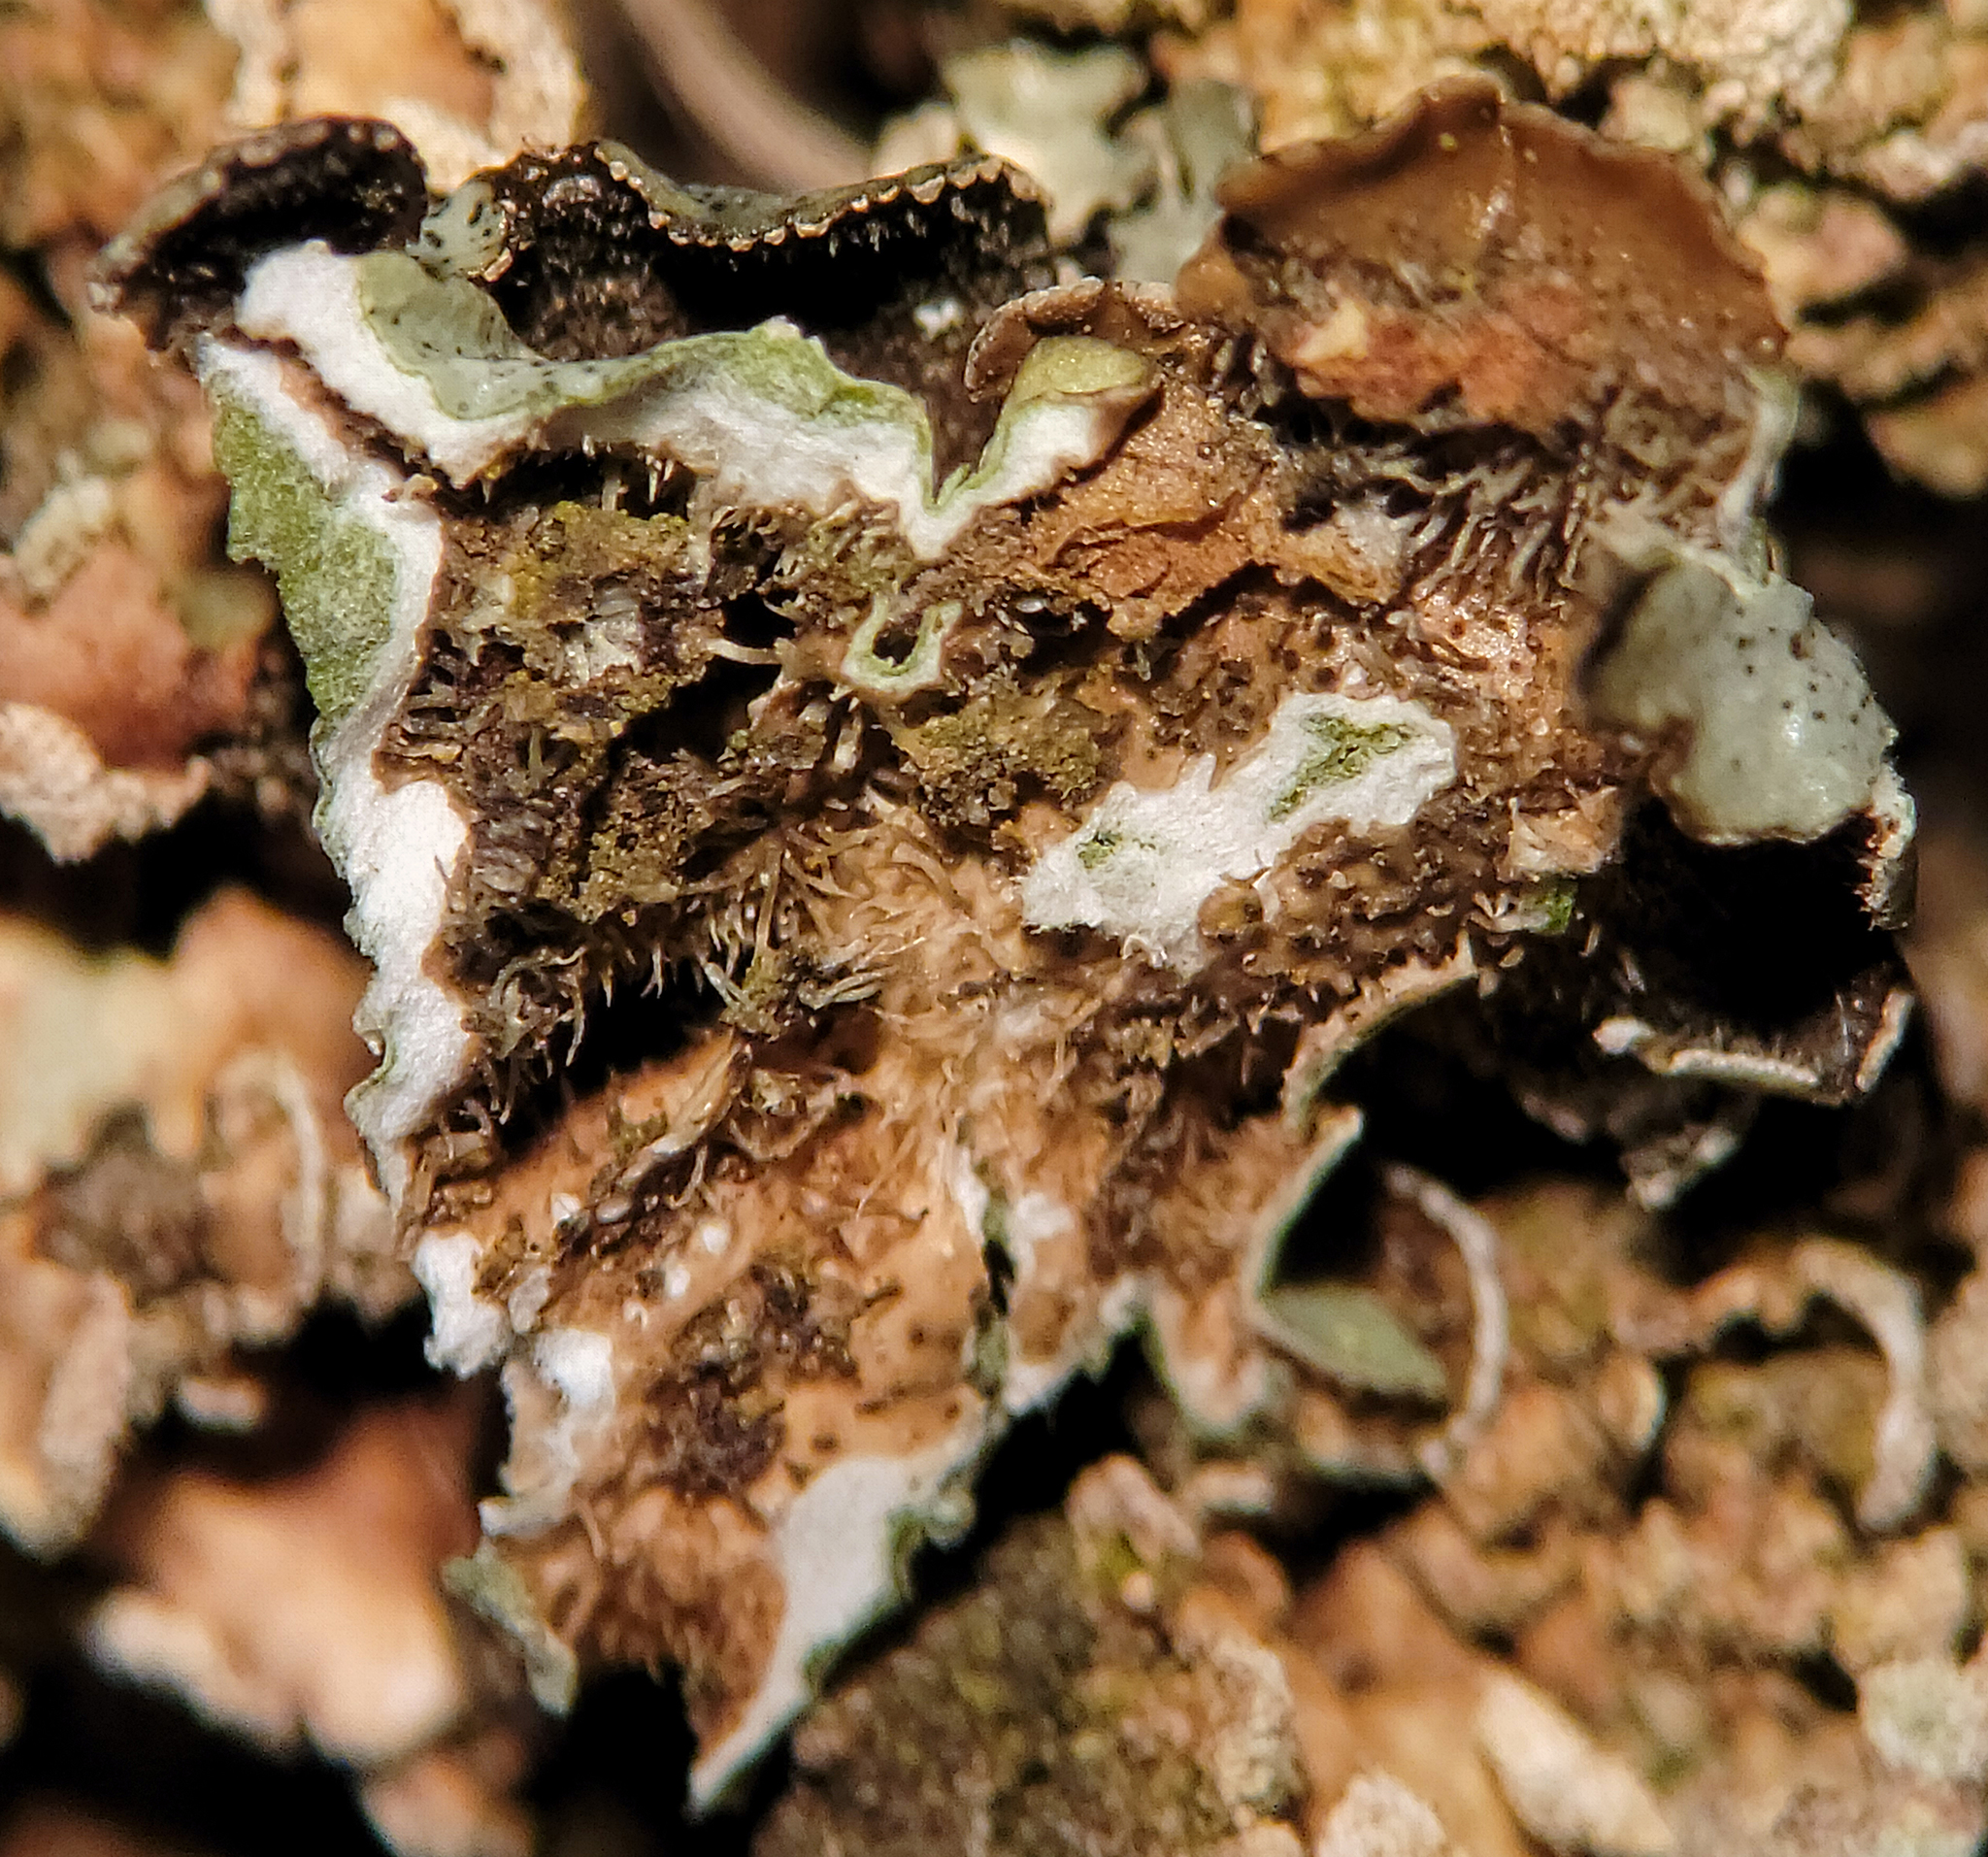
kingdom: Fungi
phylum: Ascomycota
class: Lecanoromycetes
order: Lecanorales
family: Parmeliaceae
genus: Punctelia
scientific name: Punctelia bolliana
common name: Eastern speckled shield lichen
